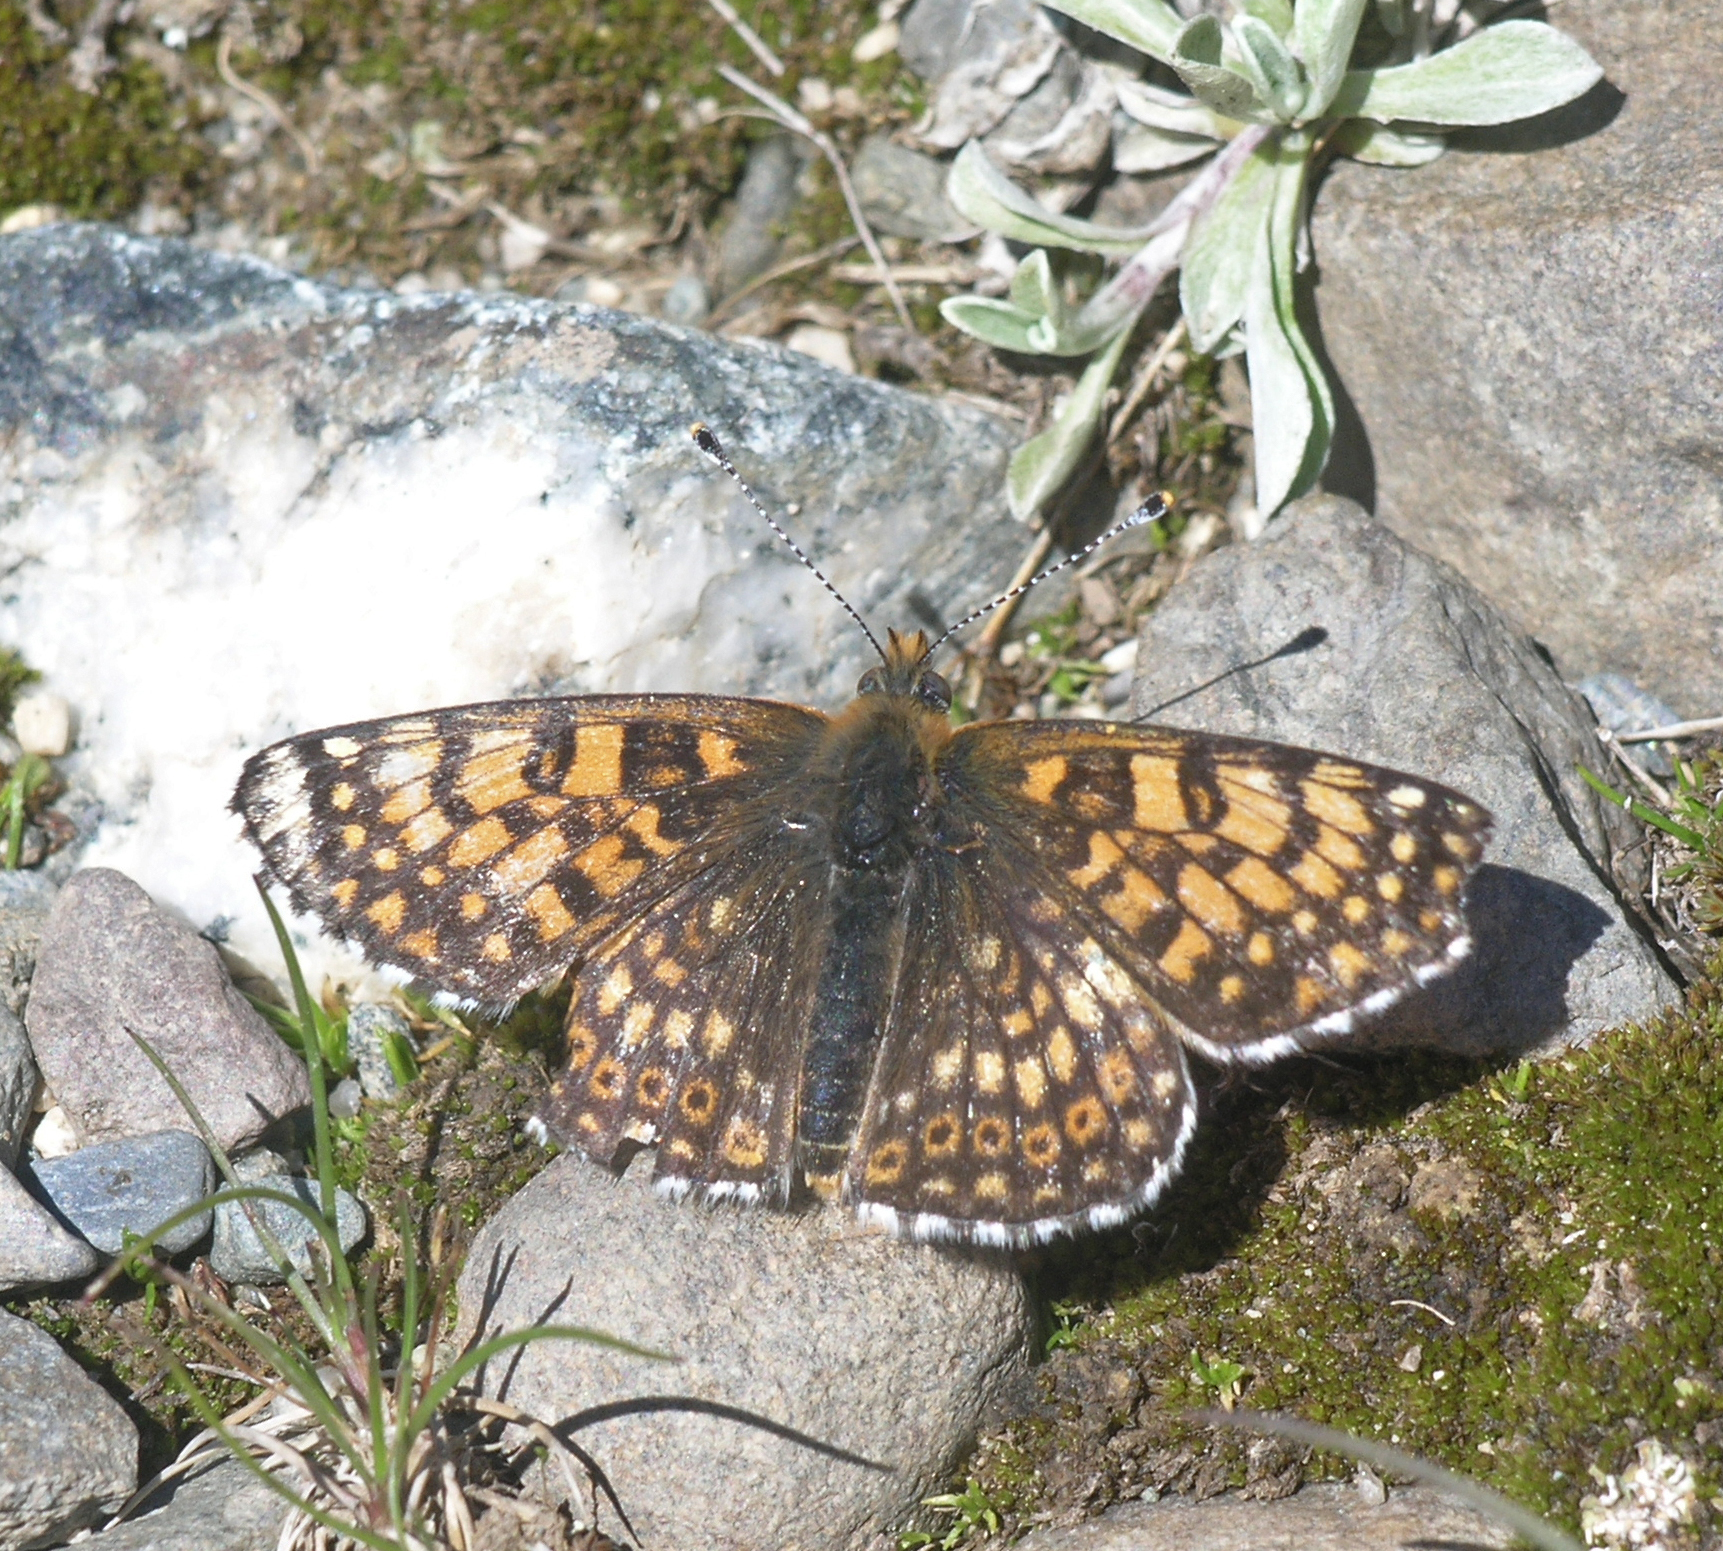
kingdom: Animalia
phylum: Arthropoda
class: Insecta
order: Lepidoptera
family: Nymphalidae
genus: Melitaea
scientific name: Melitaea cinxia
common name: Glanville fritillary
